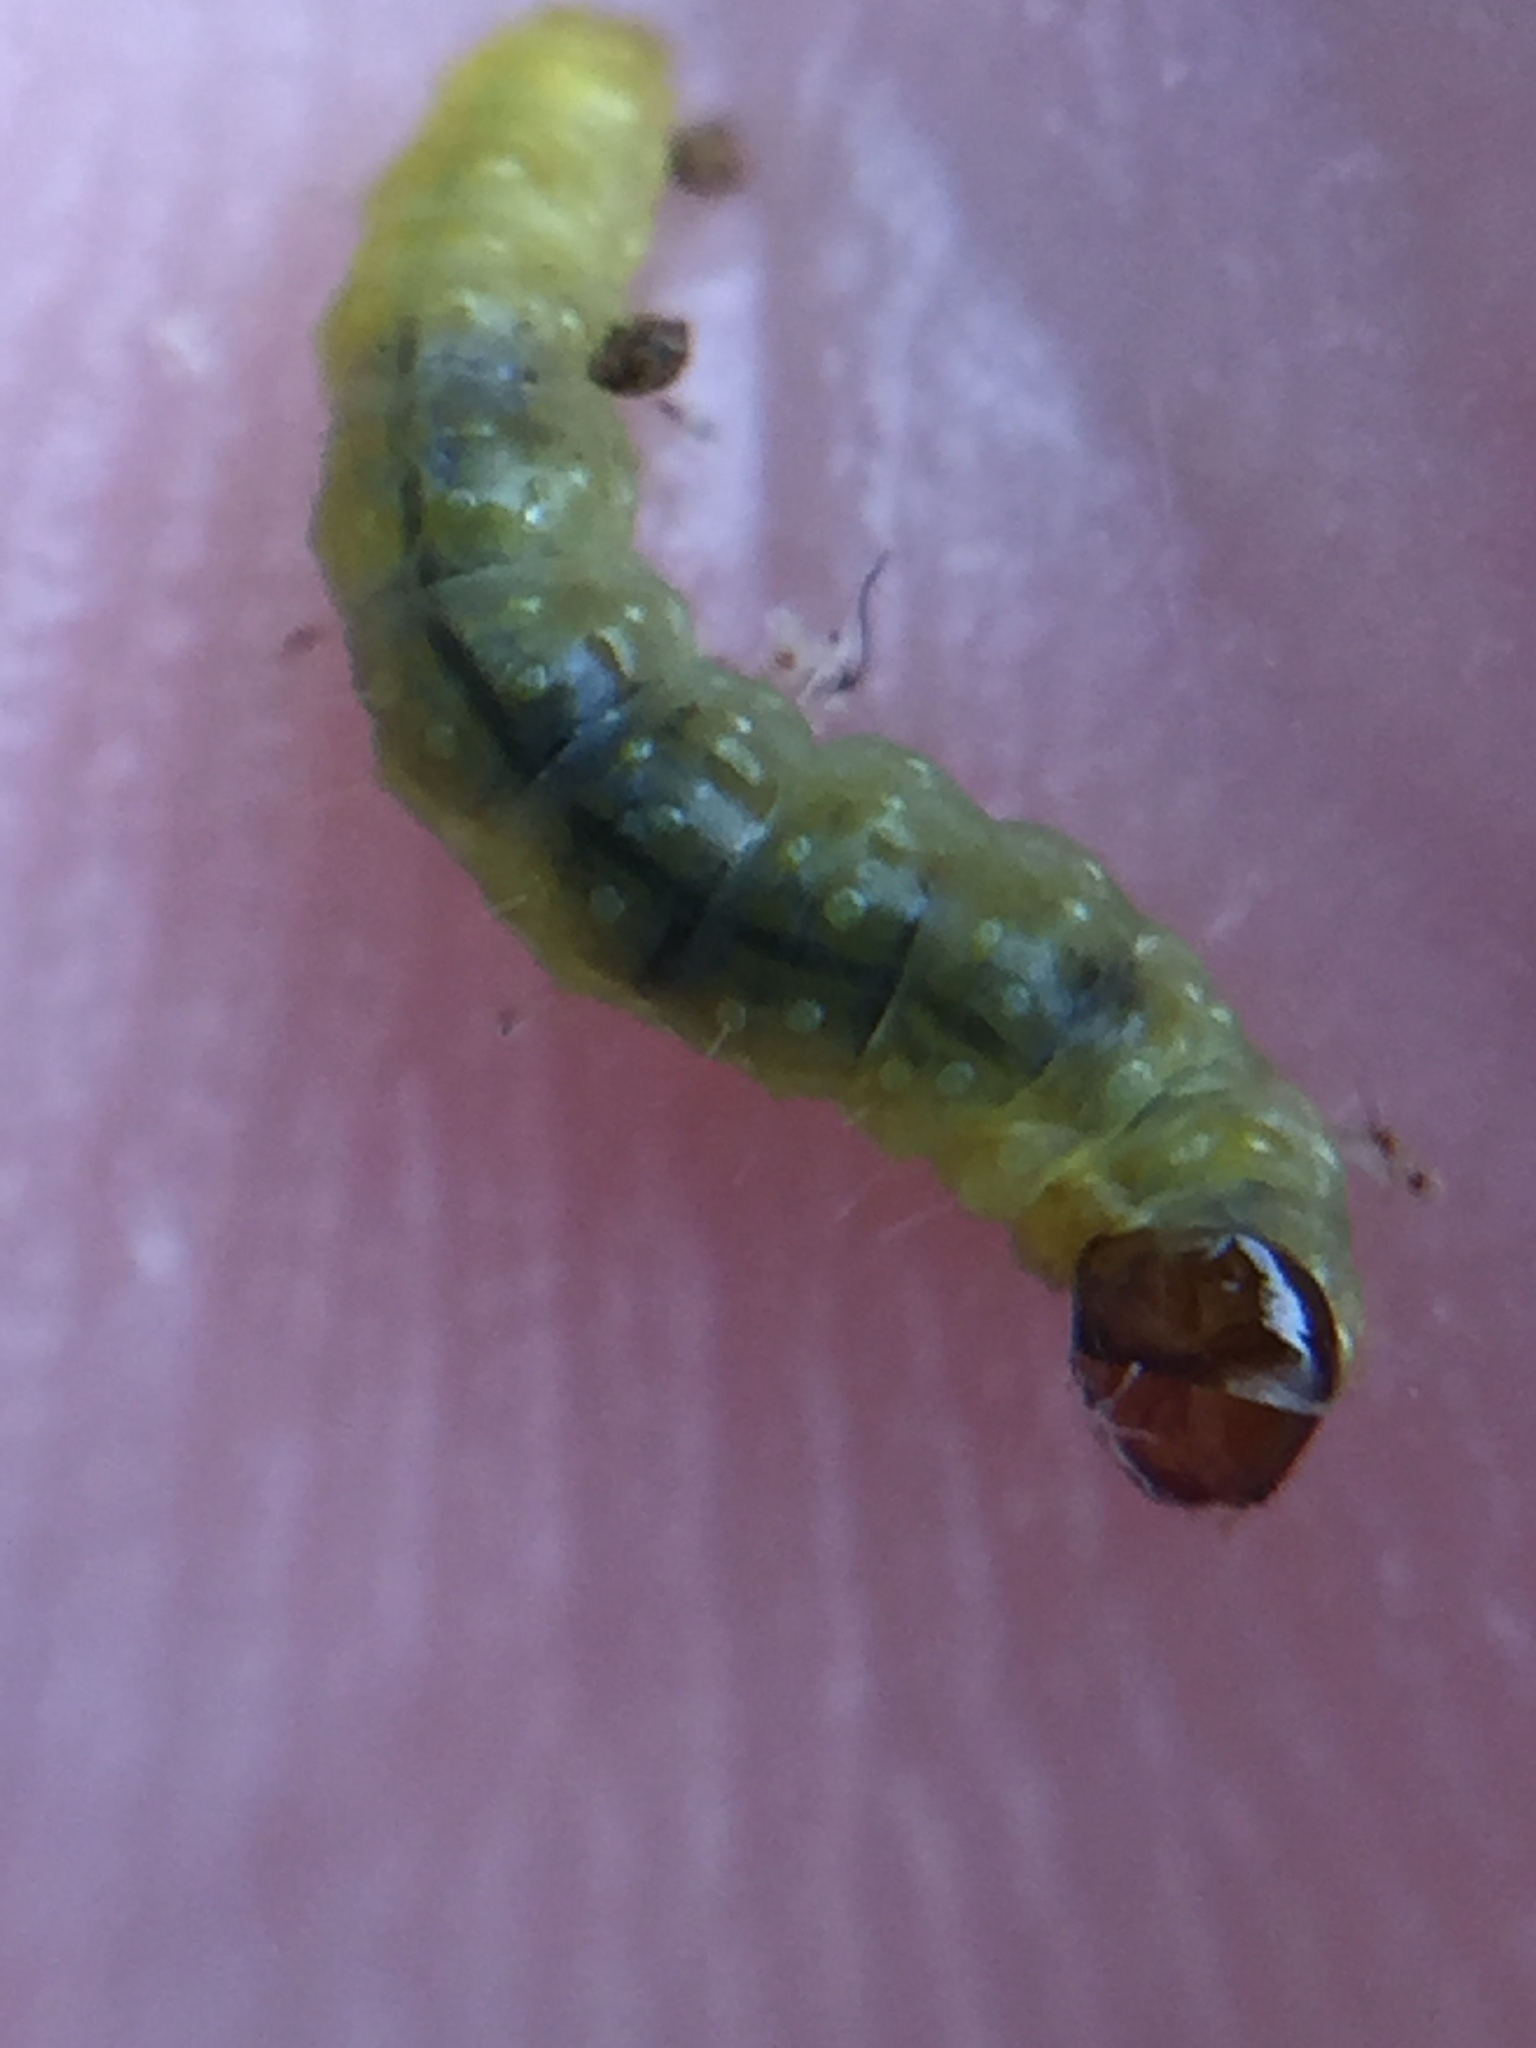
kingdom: Animalia
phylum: Arthropoda
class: Insecta
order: Lepidoptera
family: Tortricidae
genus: Philocryptica
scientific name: Philocryptica polypodii
